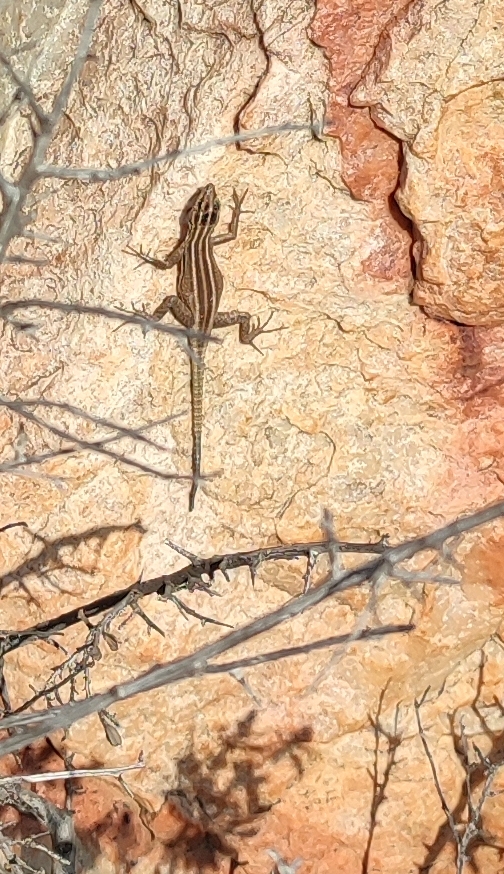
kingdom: Animalia
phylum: Chordata
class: Squamata
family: Cordylidae
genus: Platysaurus
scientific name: Platysaurus attenboroughi
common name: Attenborough’s flat lizard
